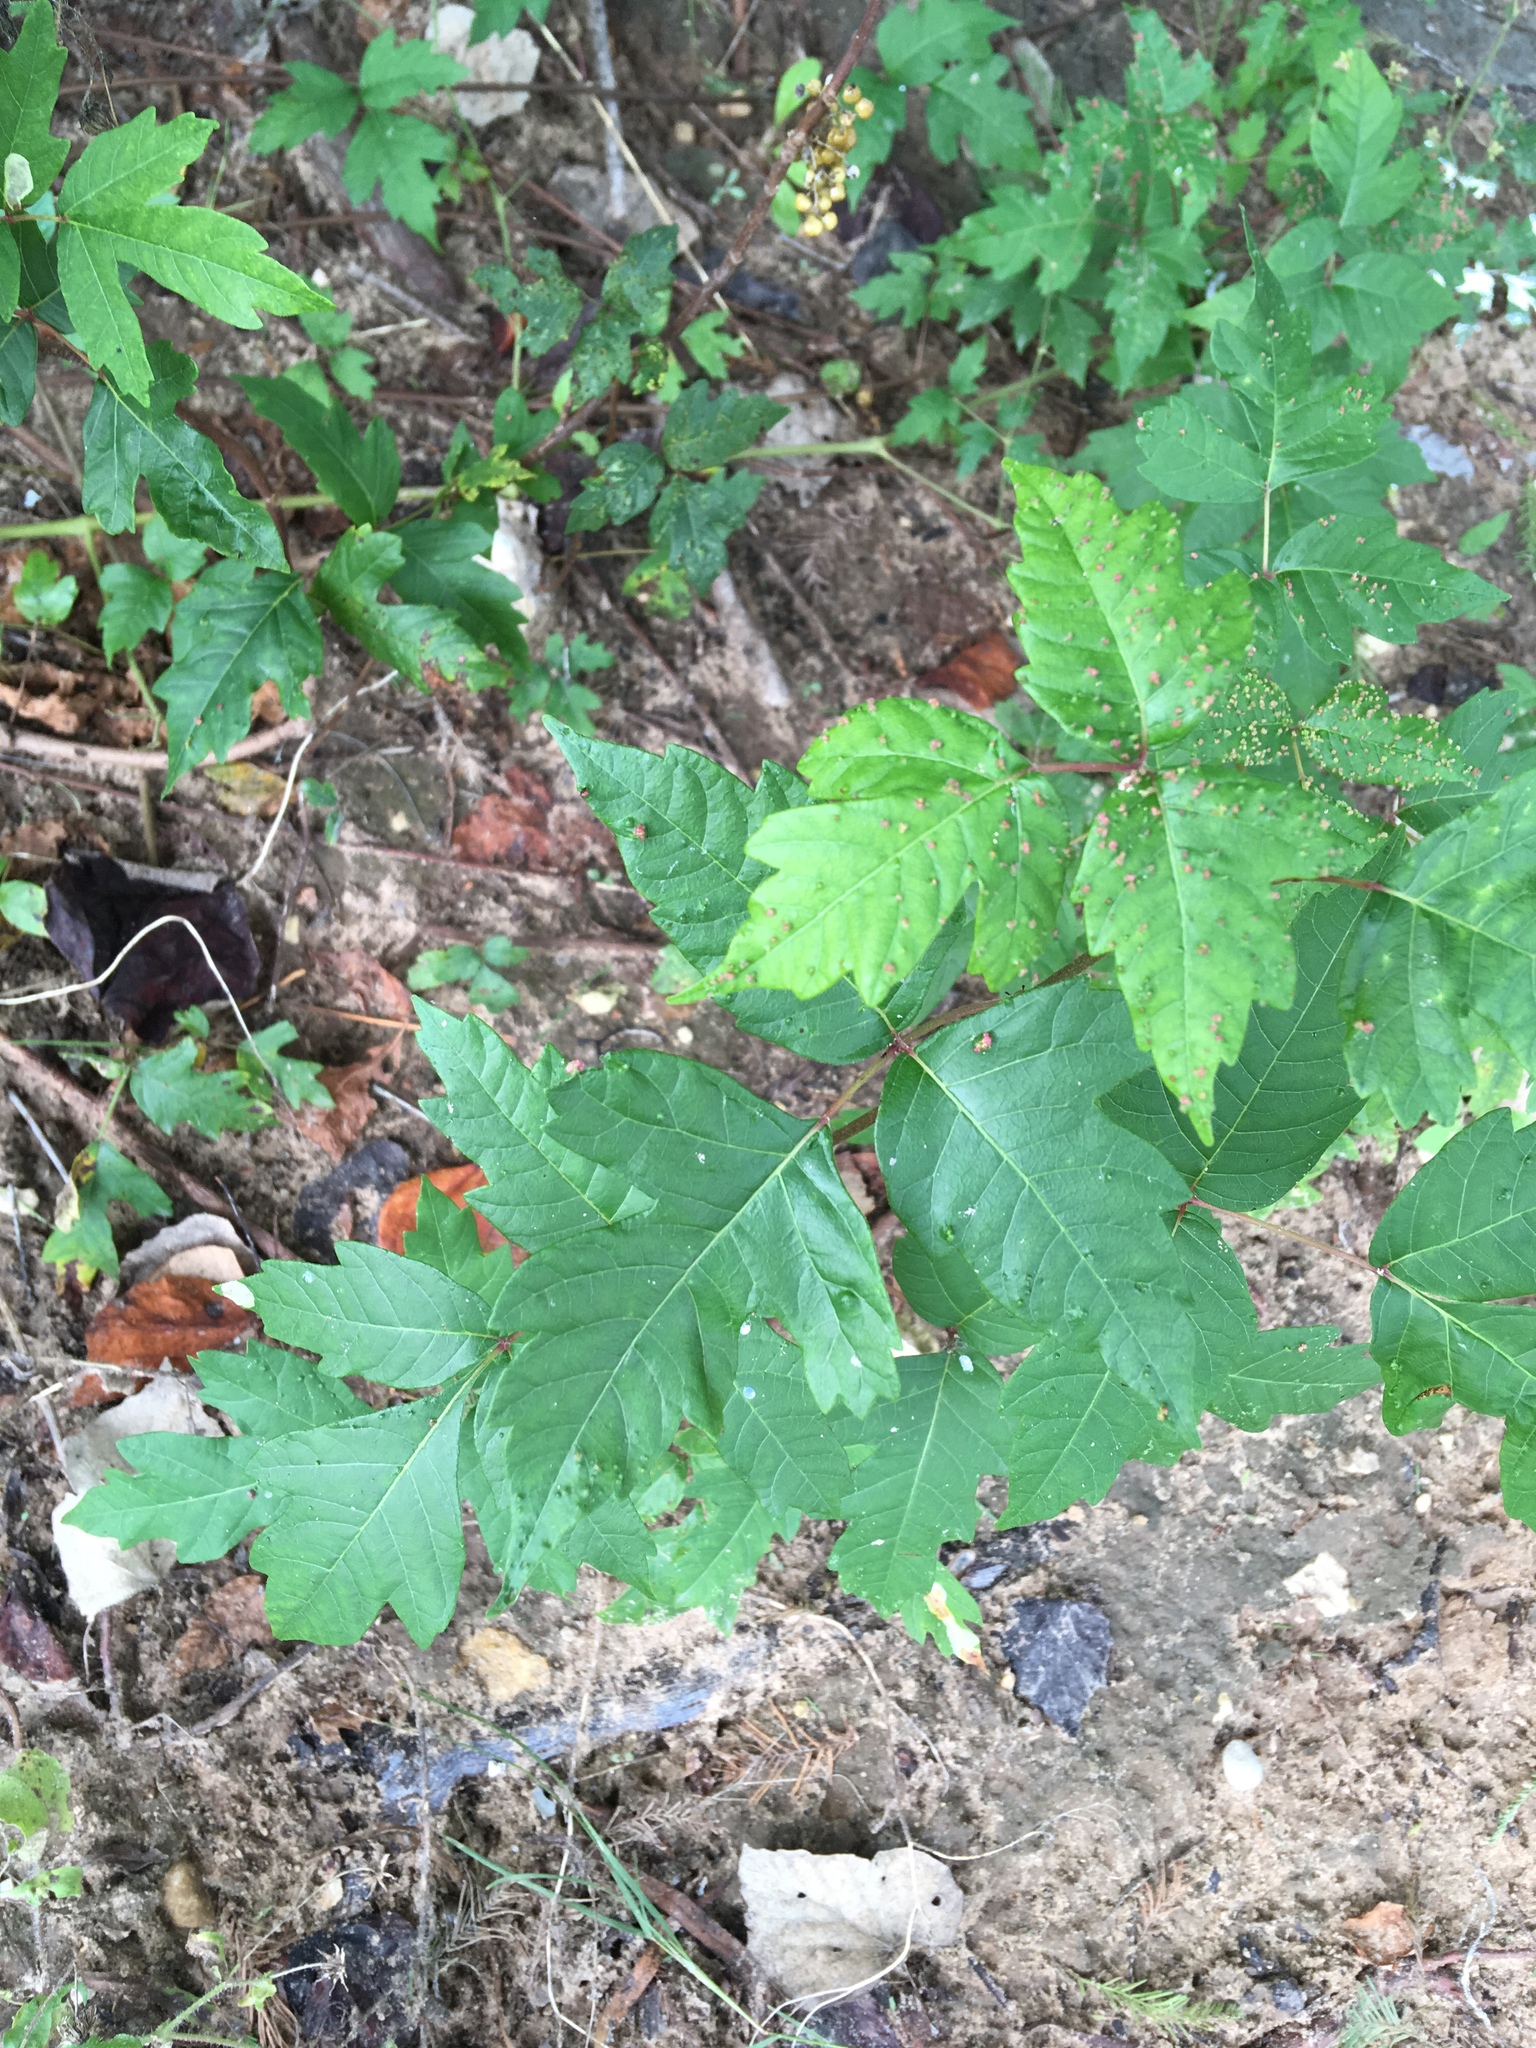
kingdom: Plantae
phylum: Tracheophyta
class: Magnoliopsida
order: Sapindales
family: Anacardiaceae
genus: Toxicodendron
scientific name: Toxicodendron radicans
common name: Poison ivy
